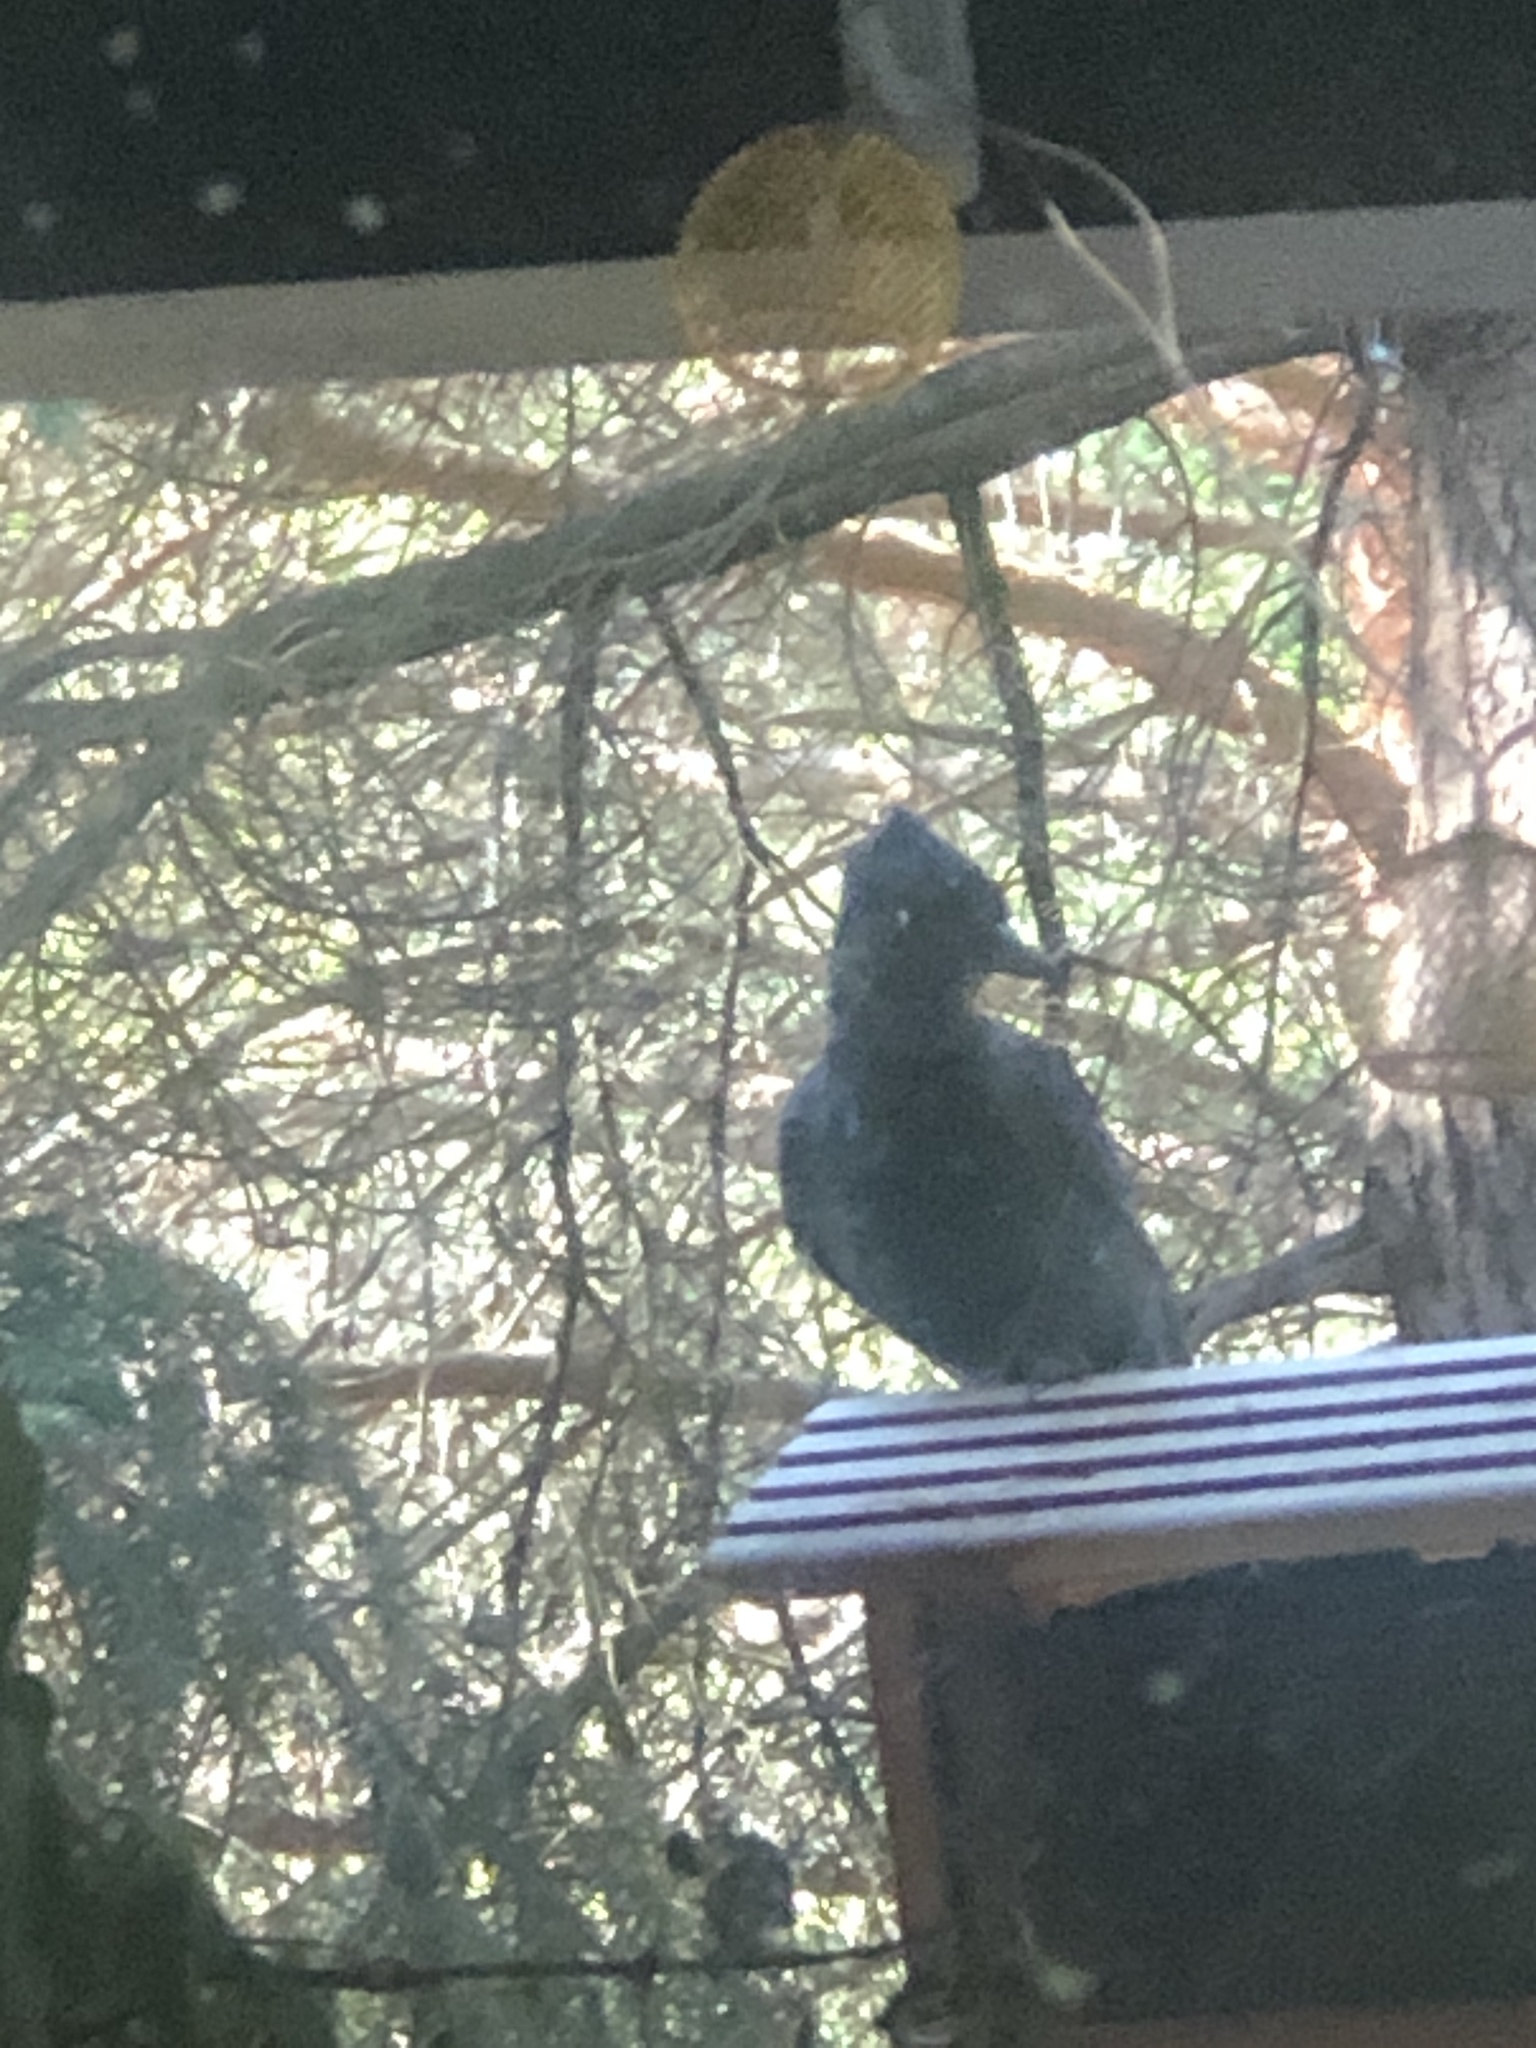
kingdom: Animalia
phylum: Chordata
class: Aves
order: Passeriformes
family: Corvidae
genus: Cyanocitta
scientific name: Cyanocitta stelleri
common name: Steller's jay
